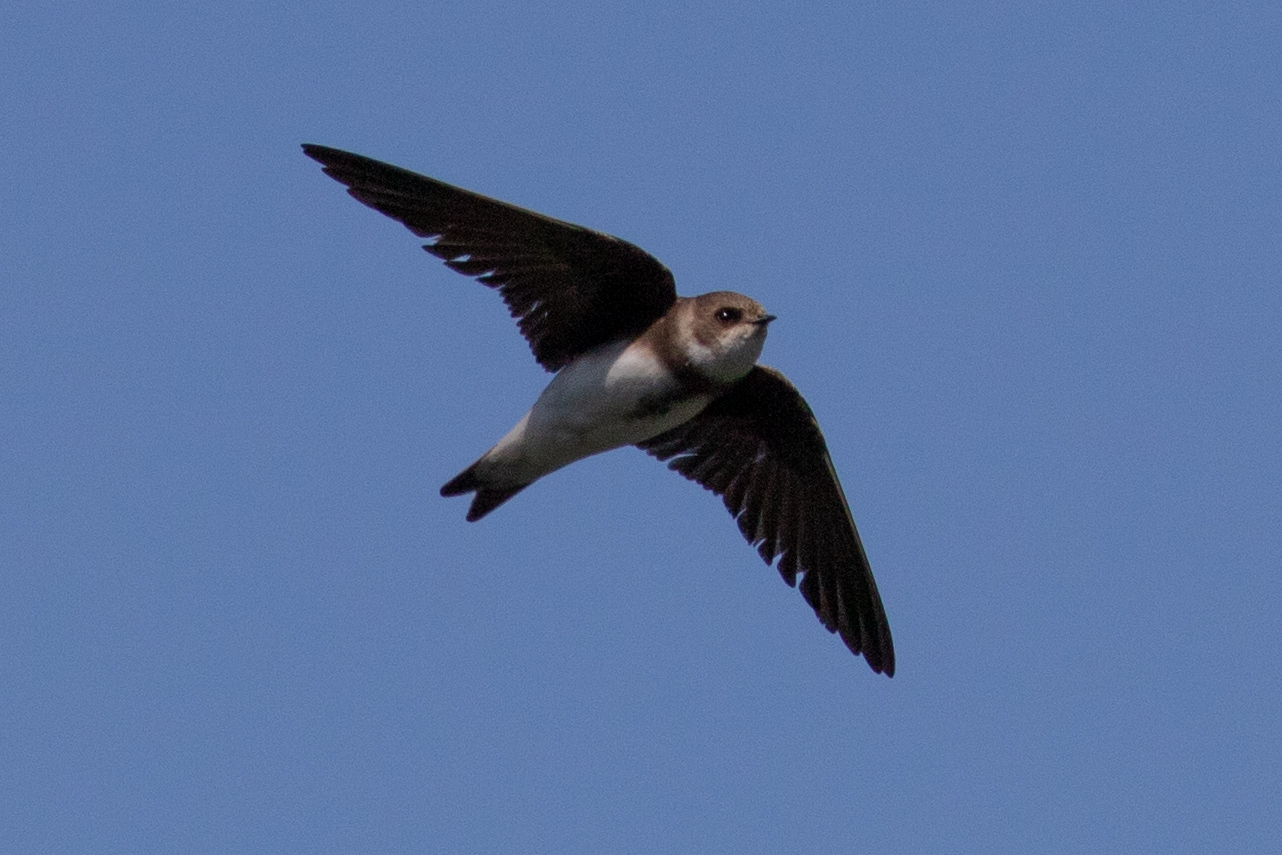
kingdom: Animalia
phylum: Chordata
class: Aves
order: Passeriformes
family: Hirundinidae
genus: Riparia
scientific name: Riparia riparia
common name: Sand martin
